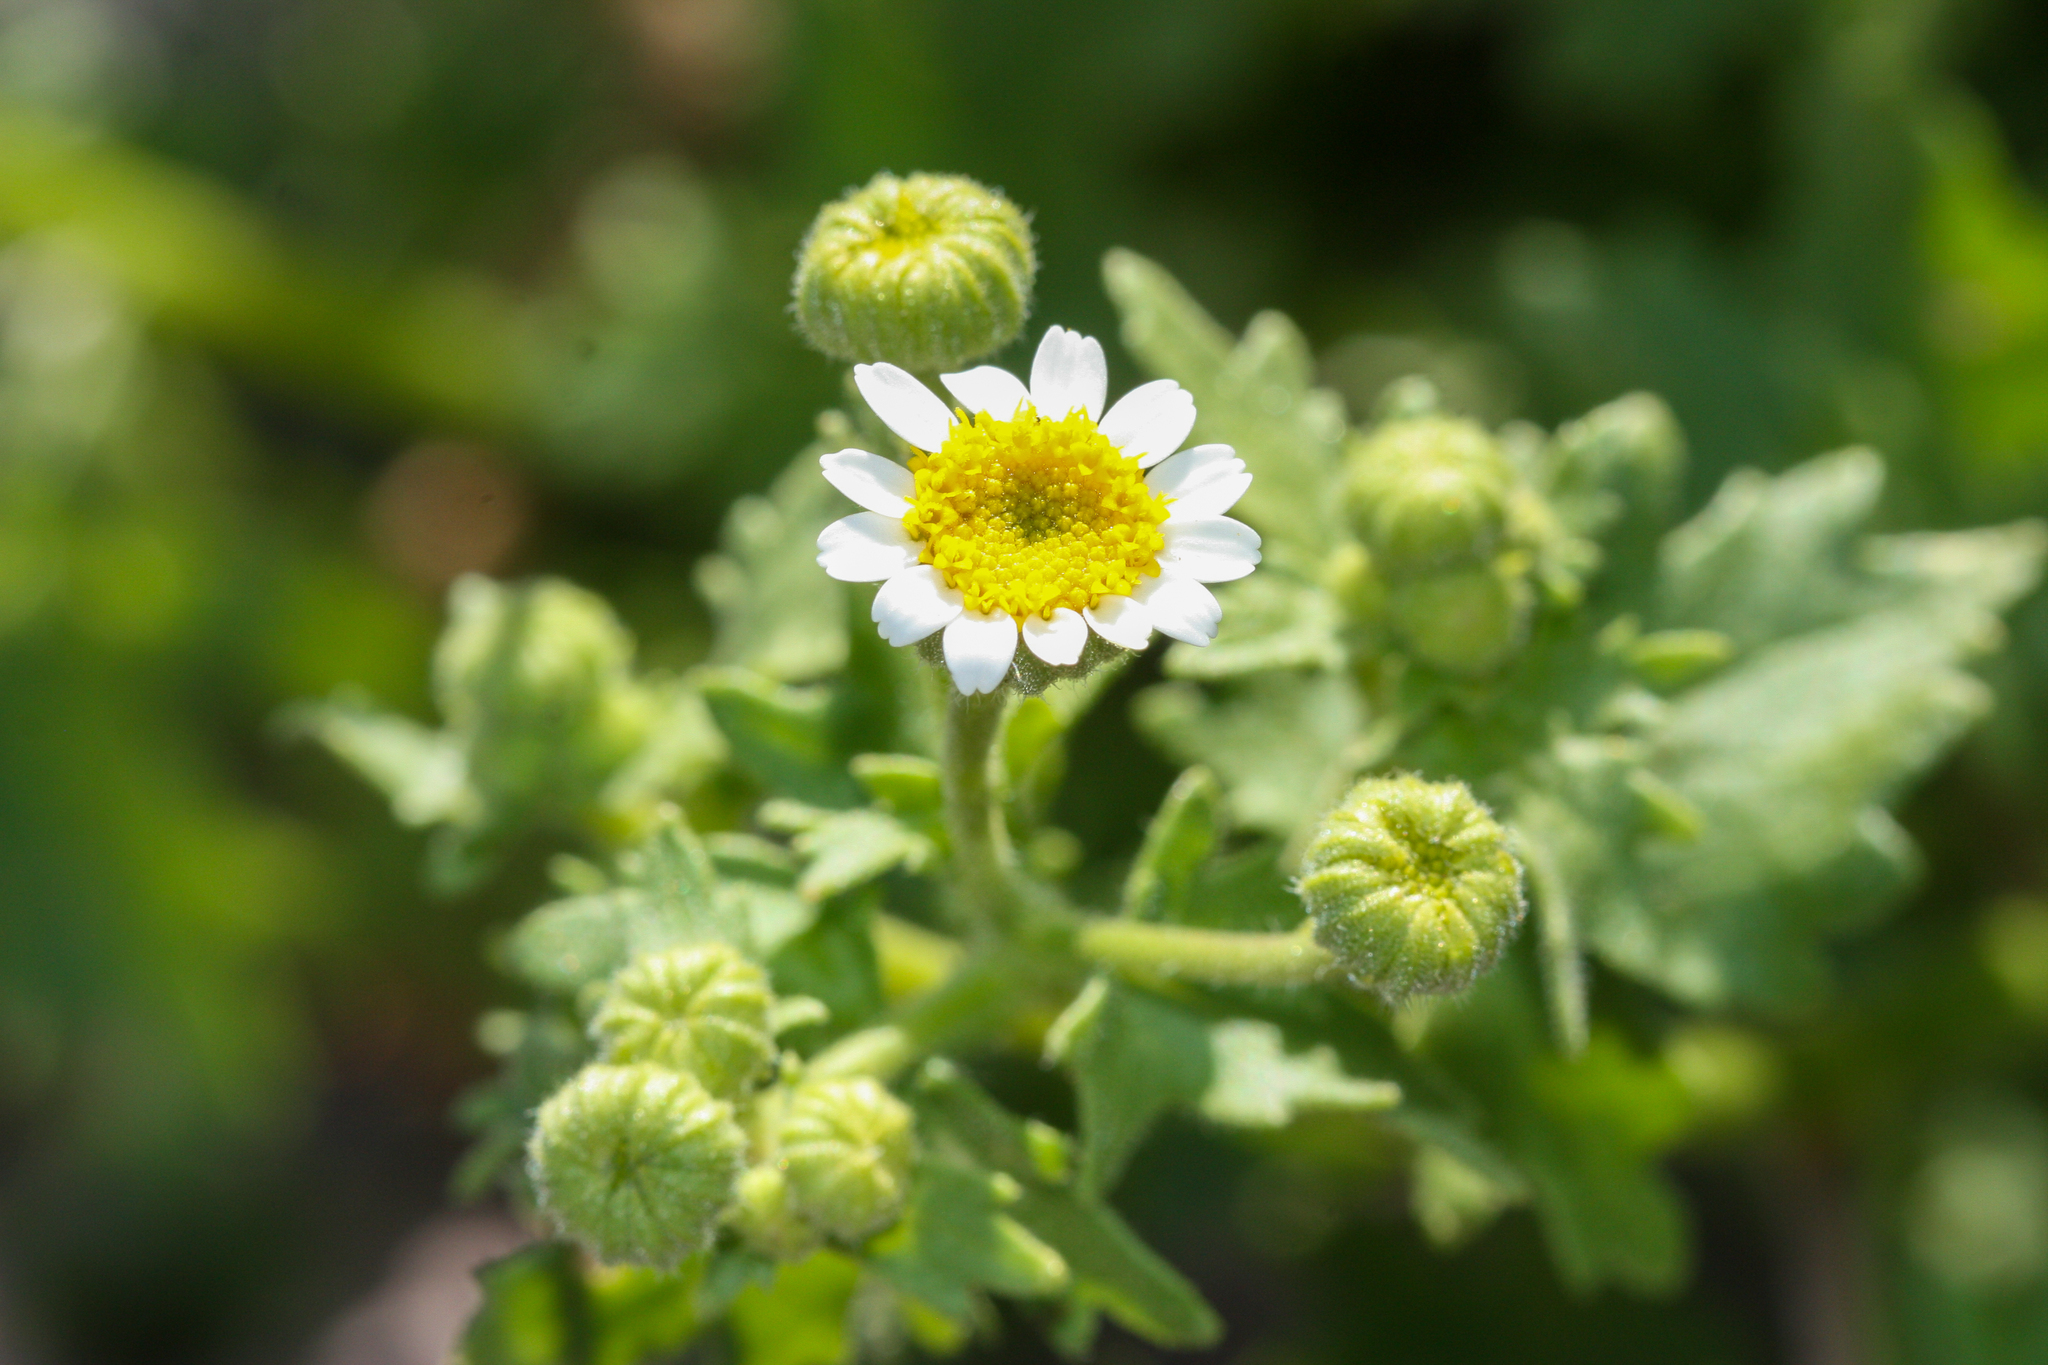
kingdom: Plantae
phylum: Tracheophyta
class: Magnoliopsida
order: Asterales
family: Asteraceae
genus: Laphamia
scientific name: Laphamia emoryi
